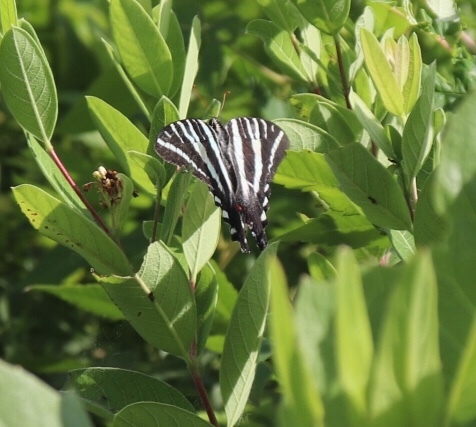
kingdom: Animalia
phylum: Arthropoda
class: Insecta
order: Lepidoptera
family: Papilionidae
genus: Protographium
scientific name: Protographium marcellus
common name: Zebra swallowtail
